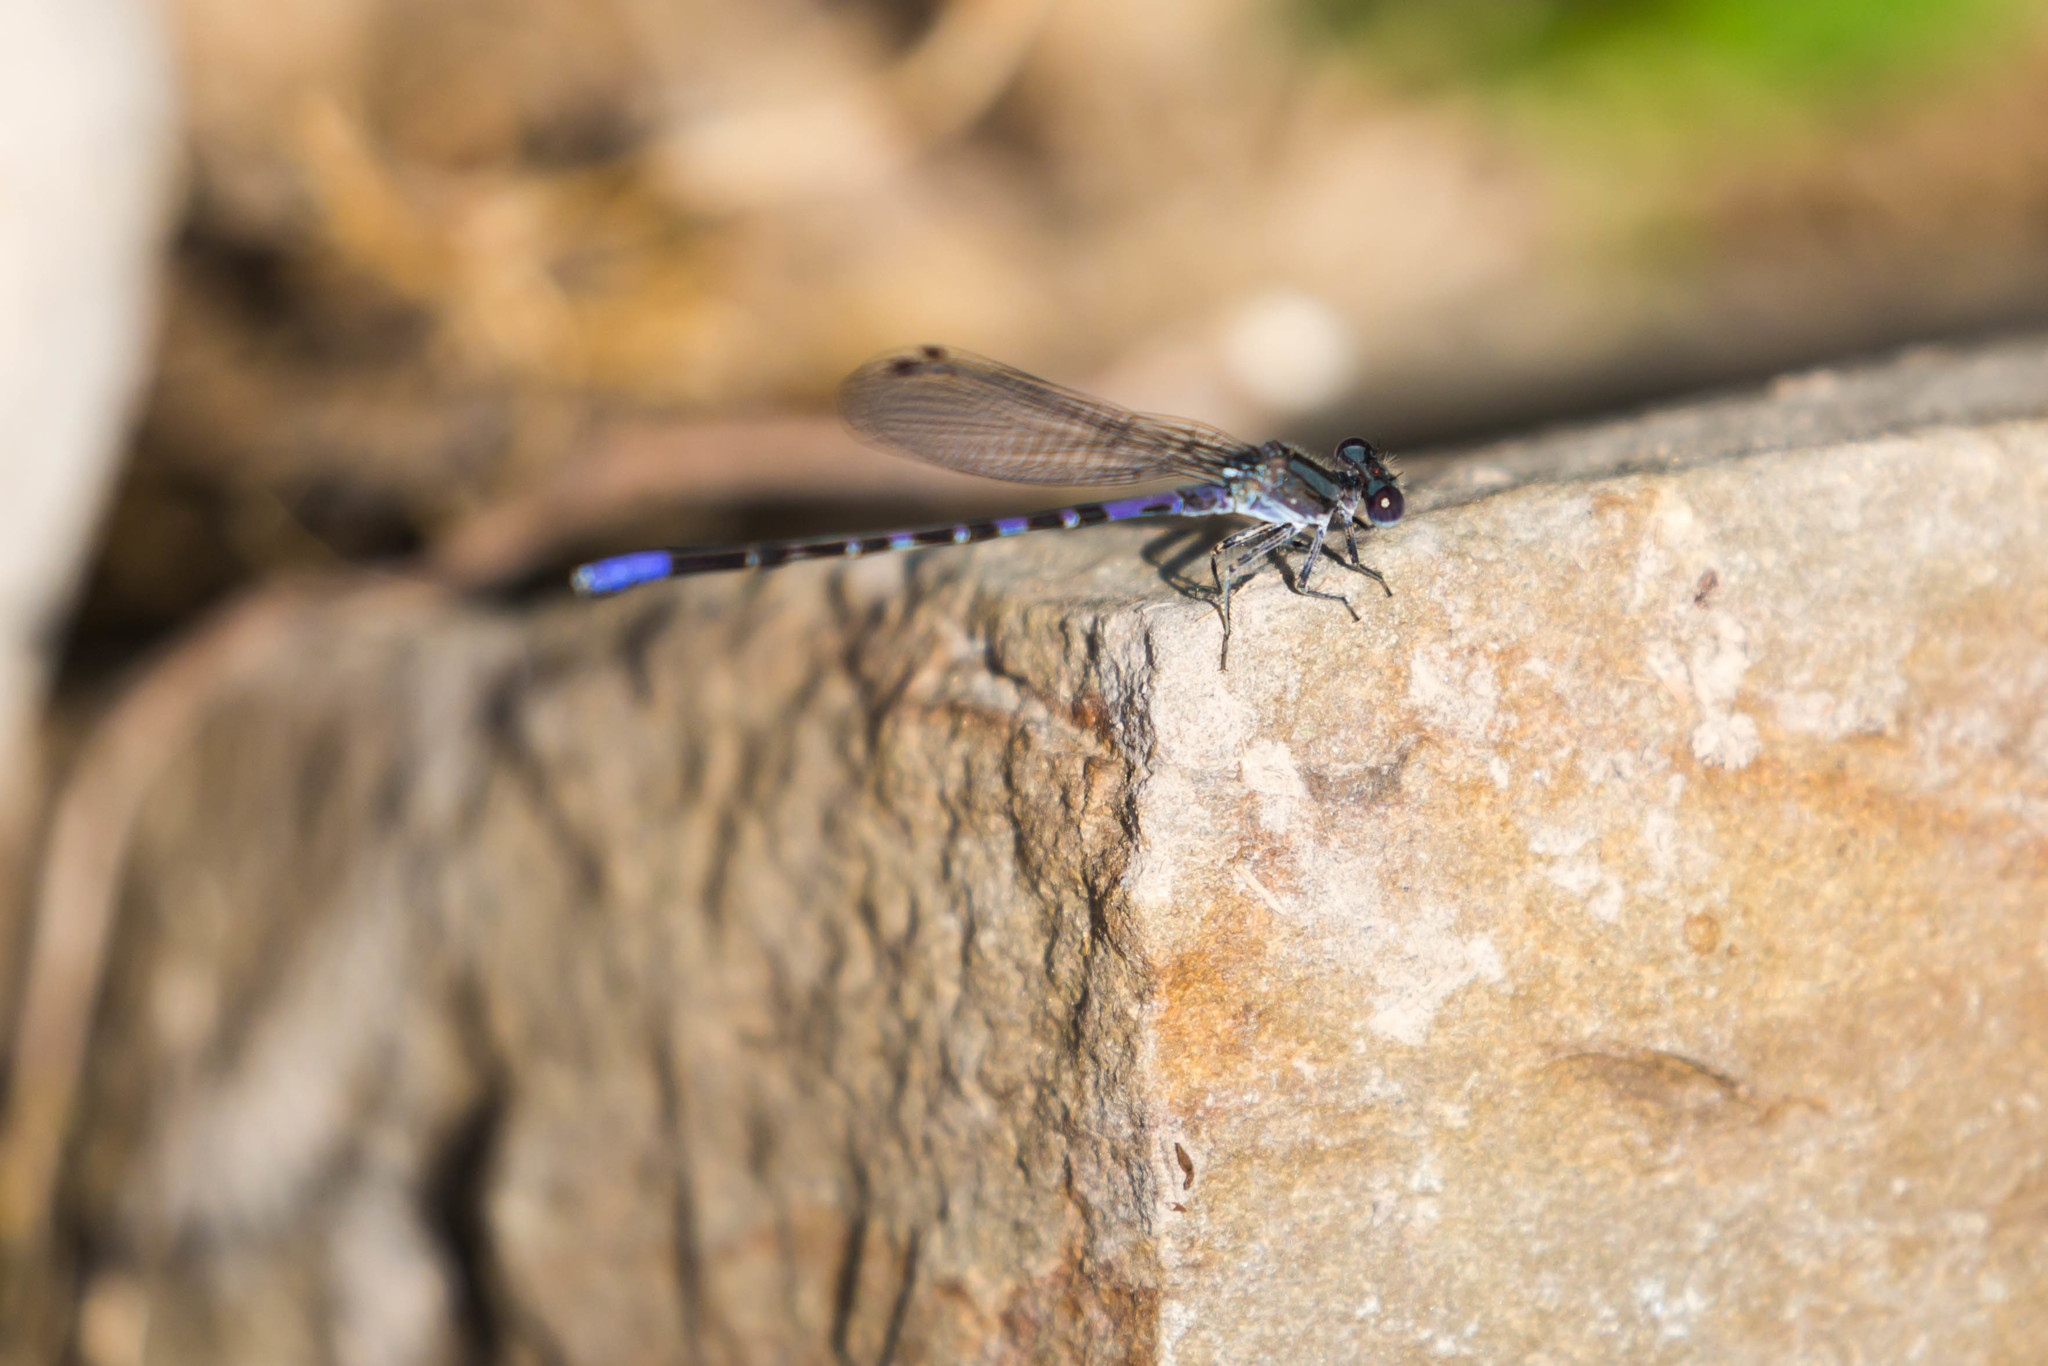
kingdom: Animalia
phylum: Arthropoda
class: Insecta
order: Odonata
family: Coenagrionidae
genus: Argia
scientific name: Argia immunda
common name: Kiowa dancer
